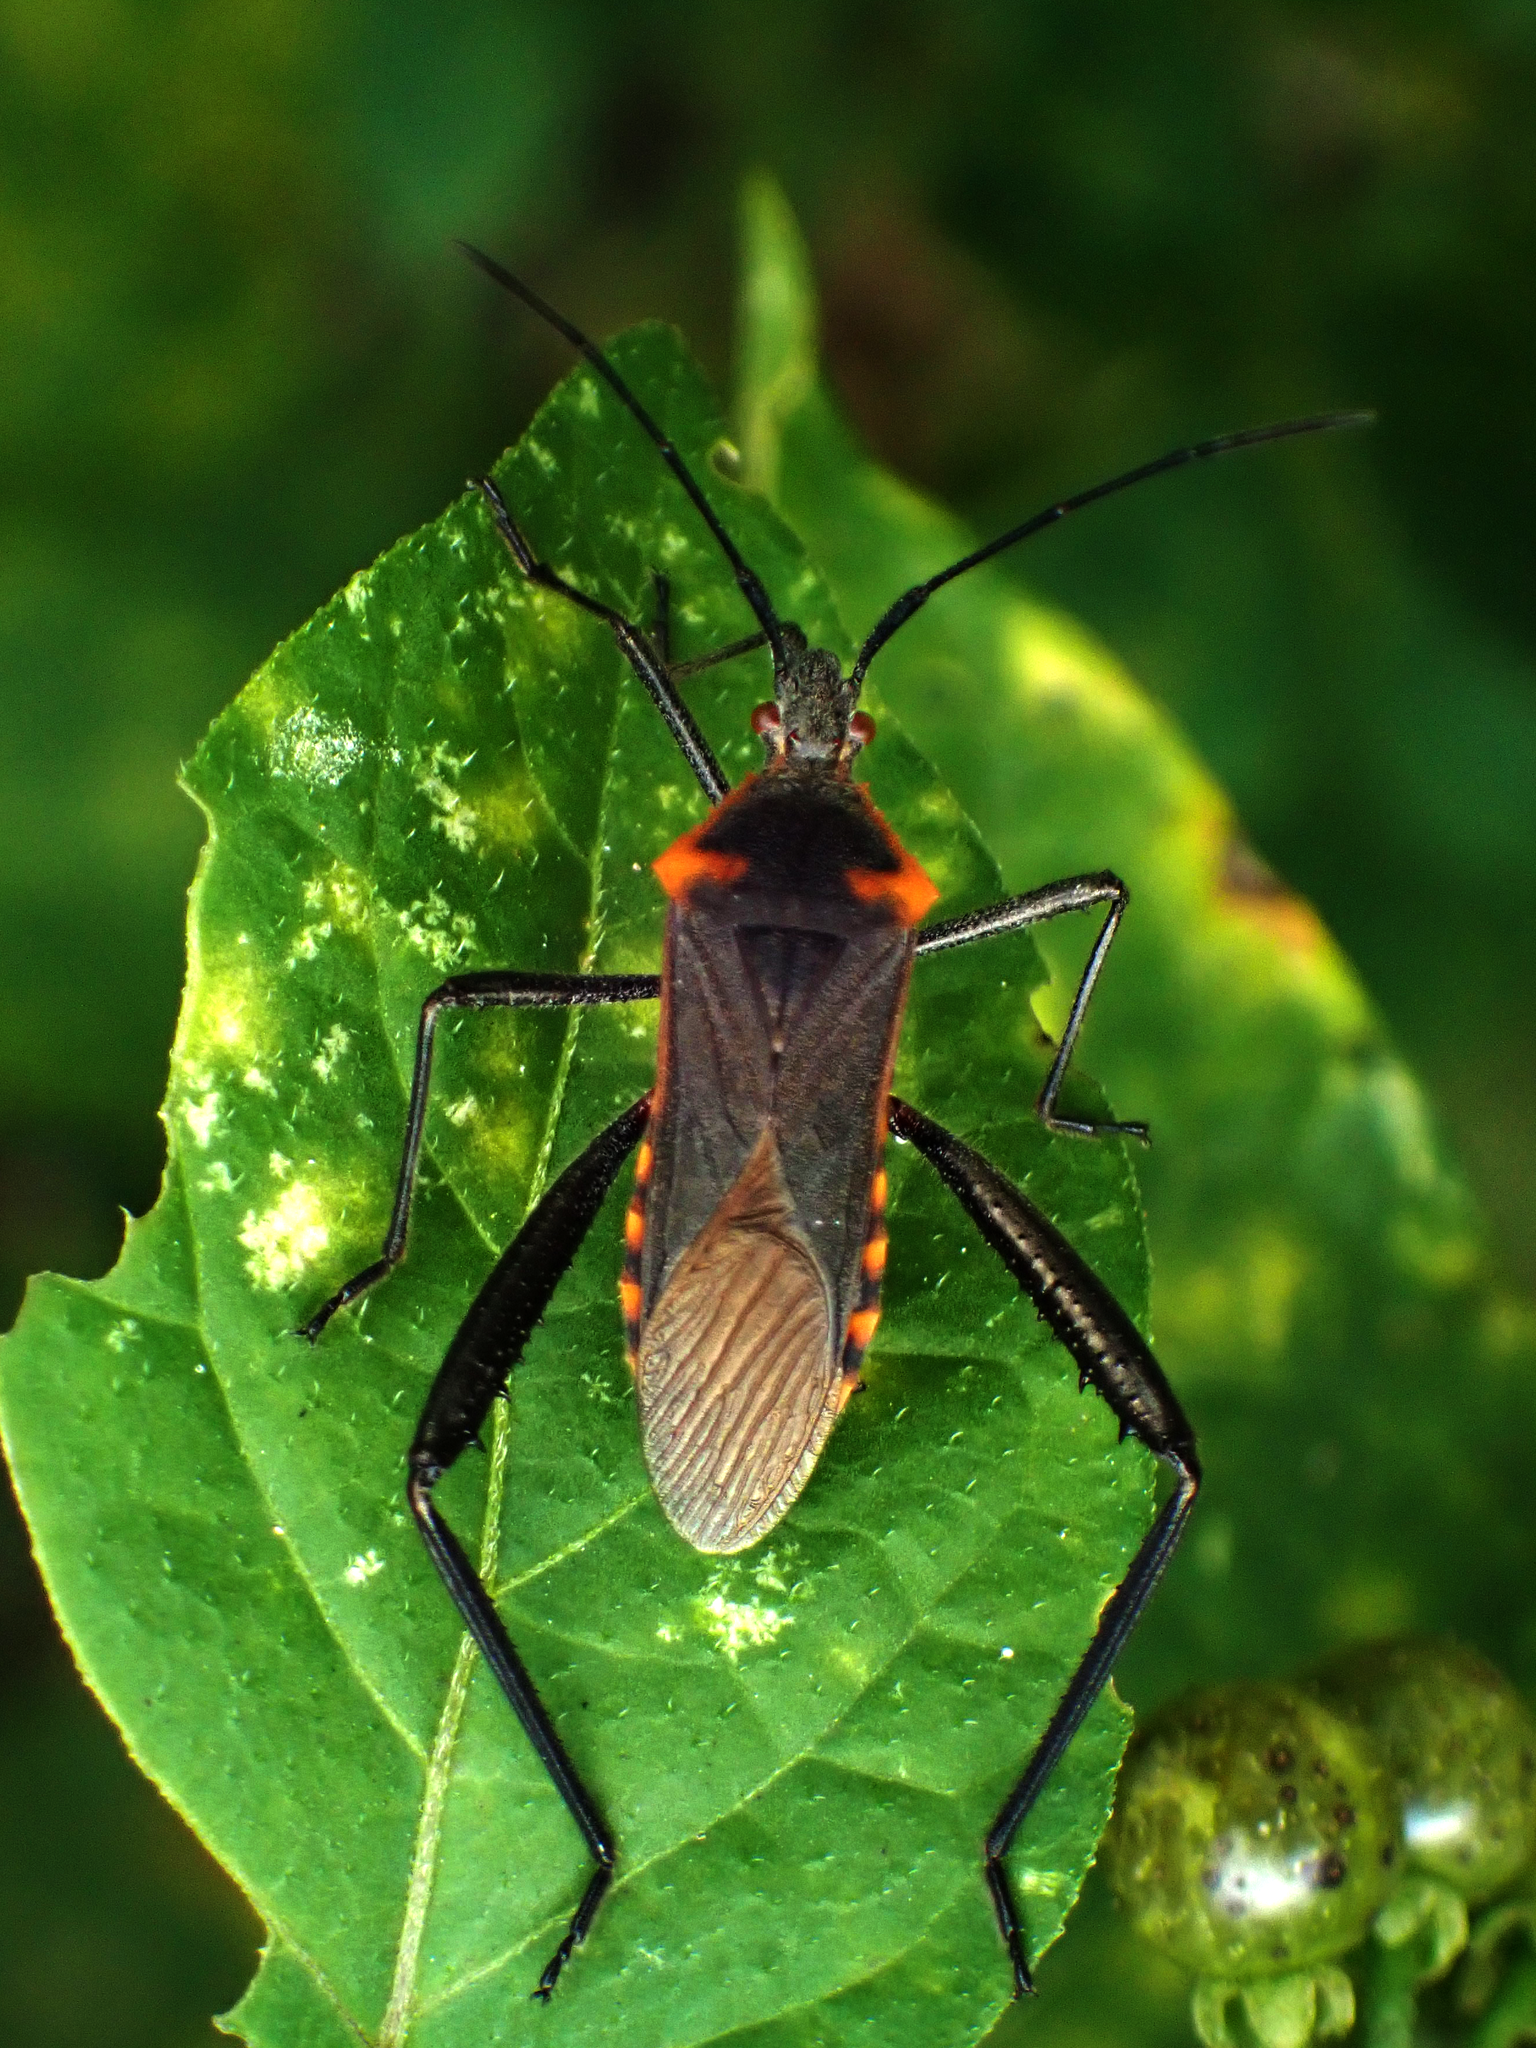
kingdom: Animalia
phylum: Arthropoda
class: Insecta
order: Hemiptera
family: Coreidae
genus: Phthiacnemia
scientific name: Phthiacnemia picta
